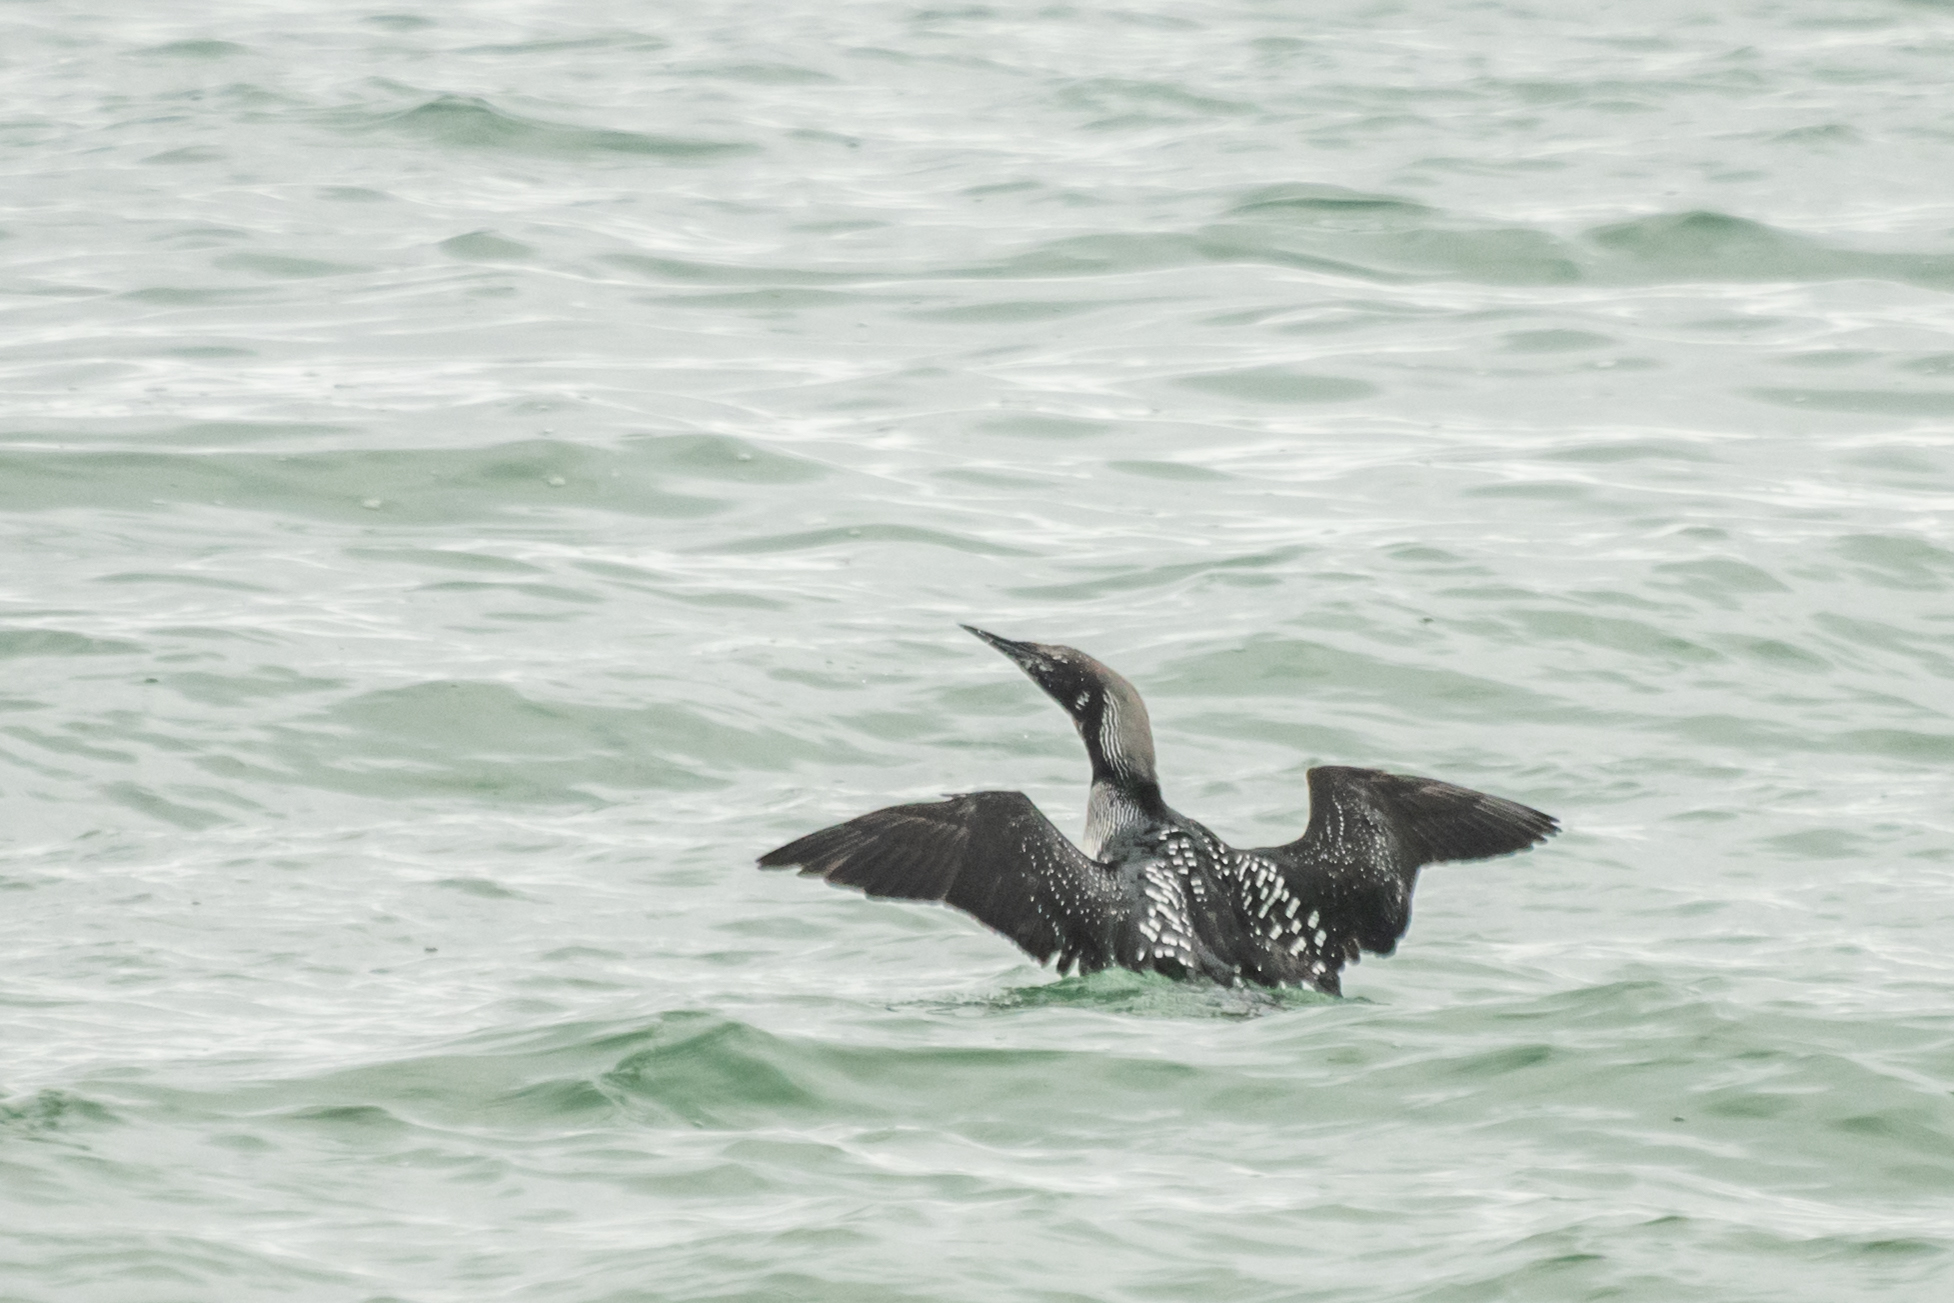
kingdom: Animalia
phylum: Chordata
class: Aves
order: Gaviiformes
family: Gaviidae
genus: Gavia
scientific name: Gavia arctica
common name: Black-throated loon
